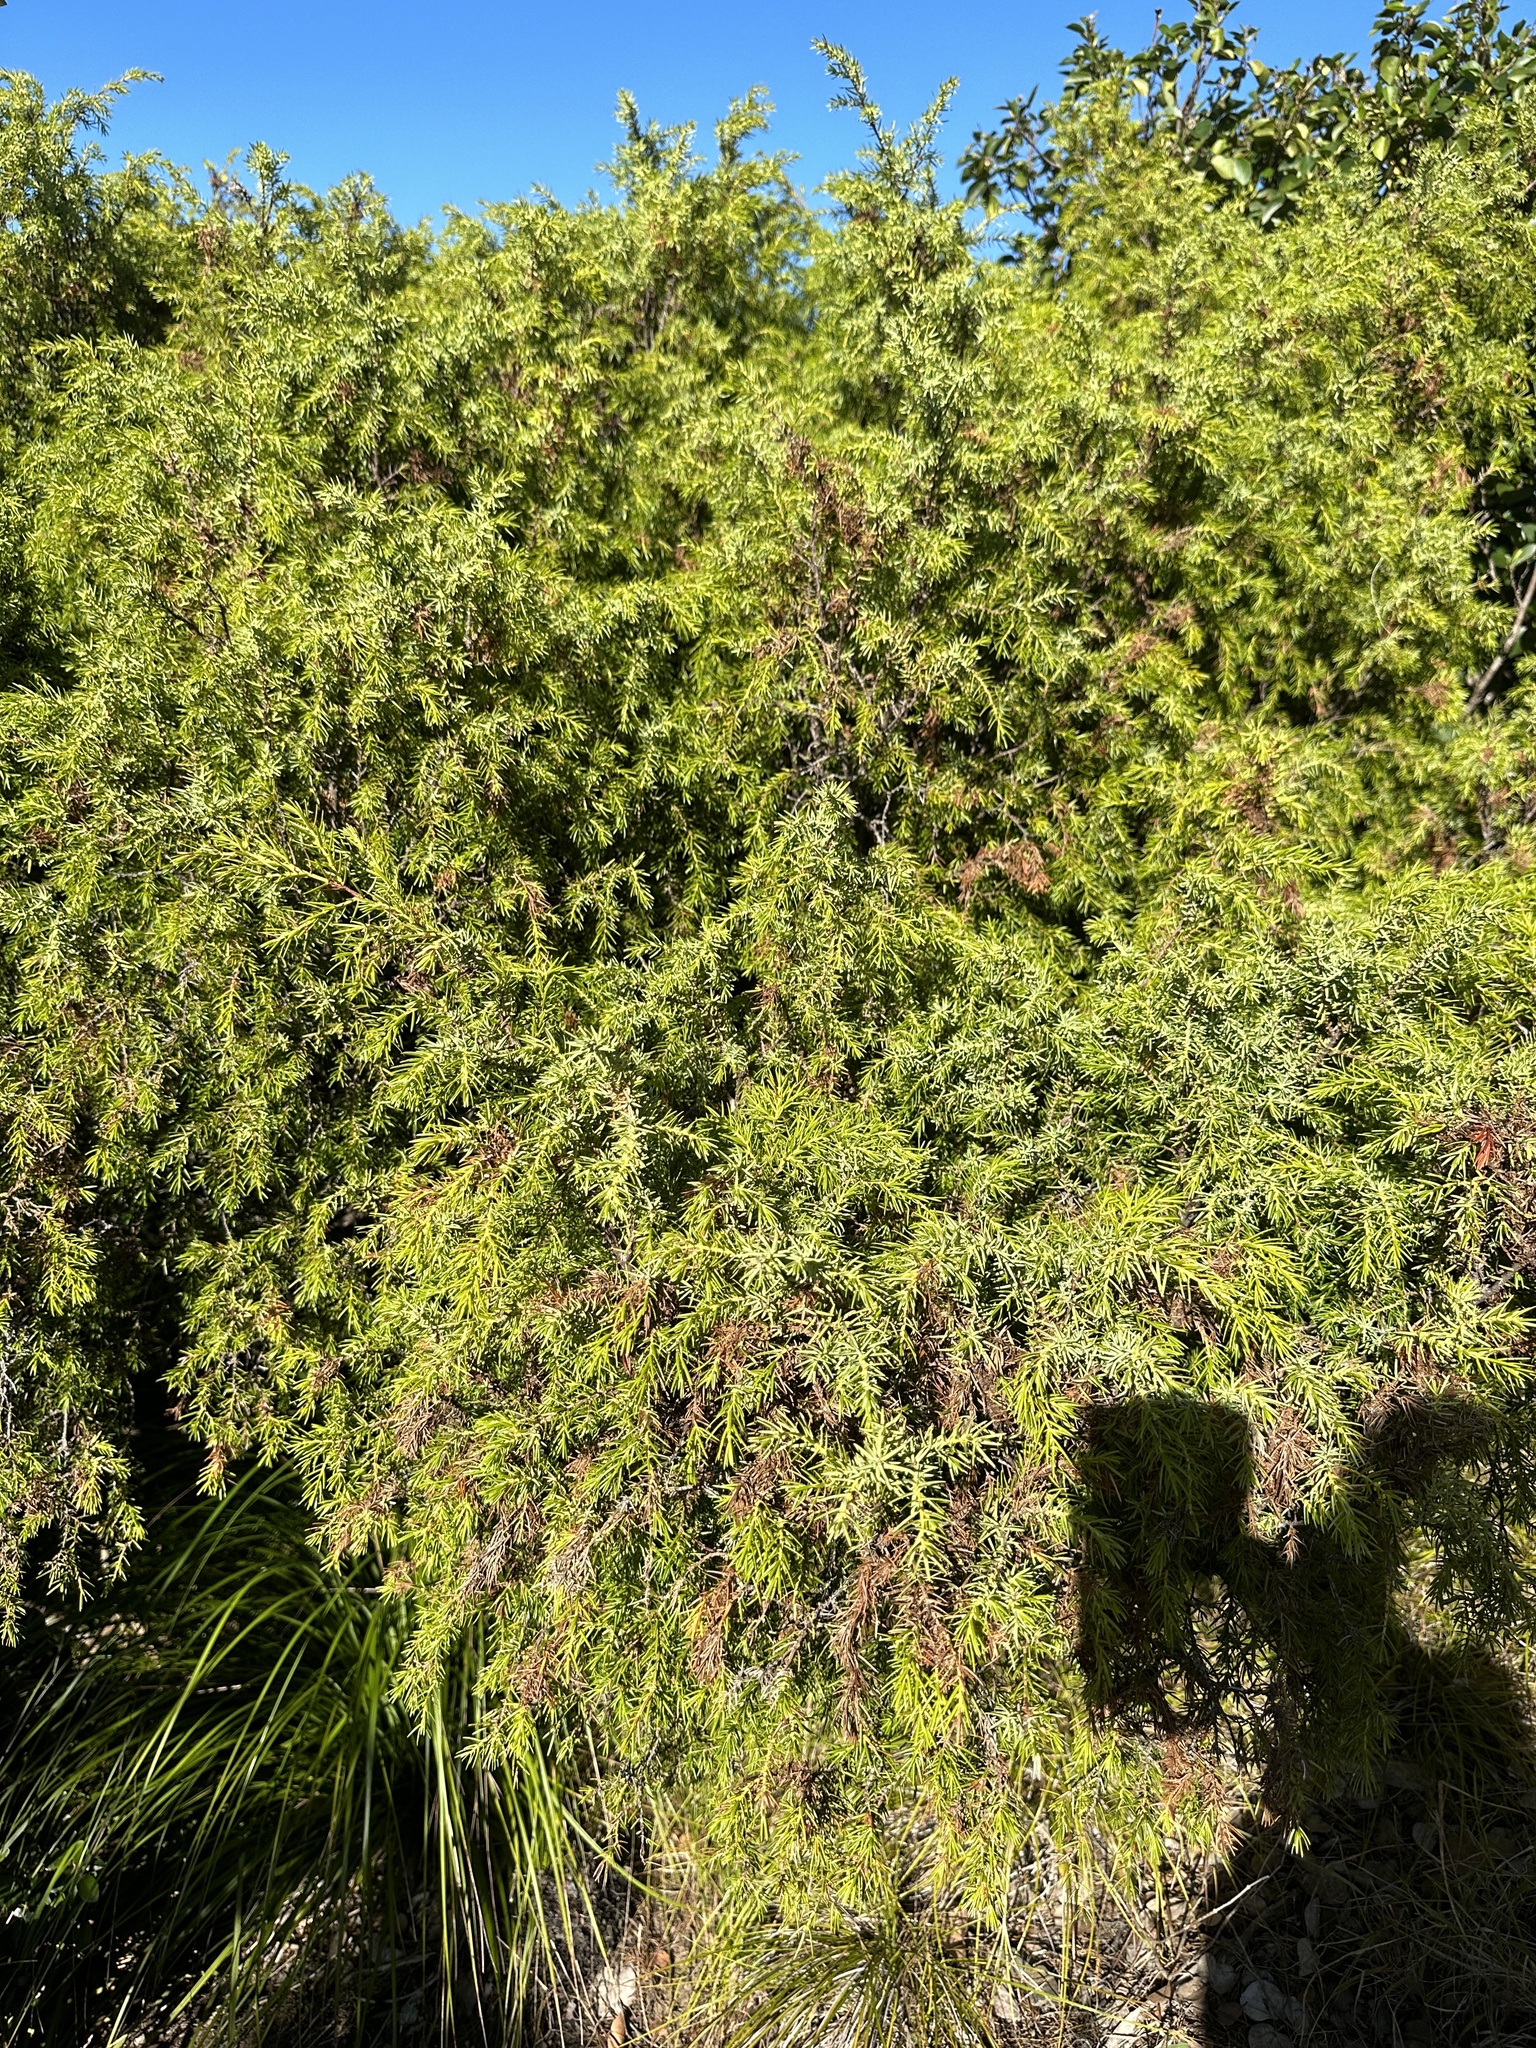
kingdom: Plantae
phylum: Tracheophyta
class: Pinopsida
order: Pinales
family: Cupressaceae
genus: Juniperus
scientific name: Juniperus taxifolia
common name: Fitcheisi
